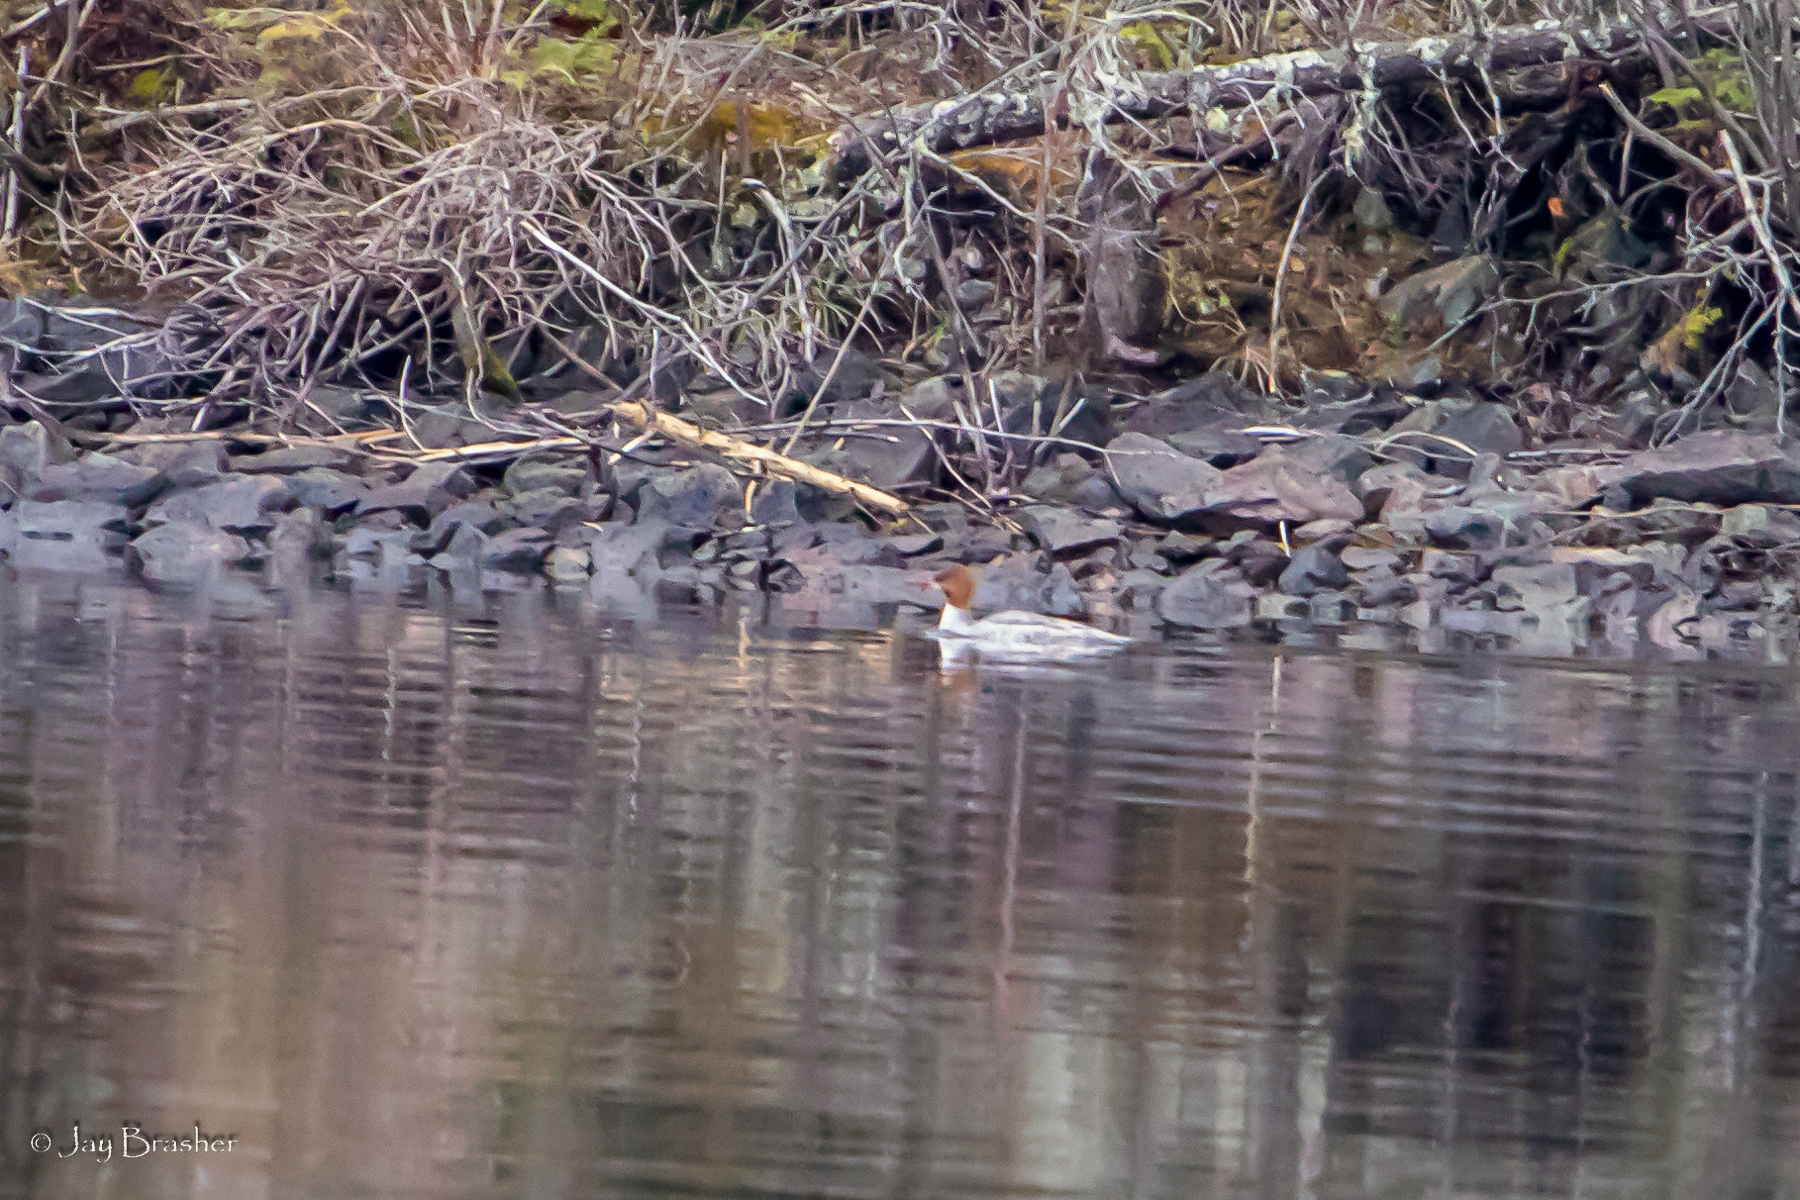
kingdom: Animalia
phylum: Chordata
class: Aves
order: Anseriformes
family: Anatidae
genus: Mergus
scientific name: Mergus merganser
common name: Common merganser
